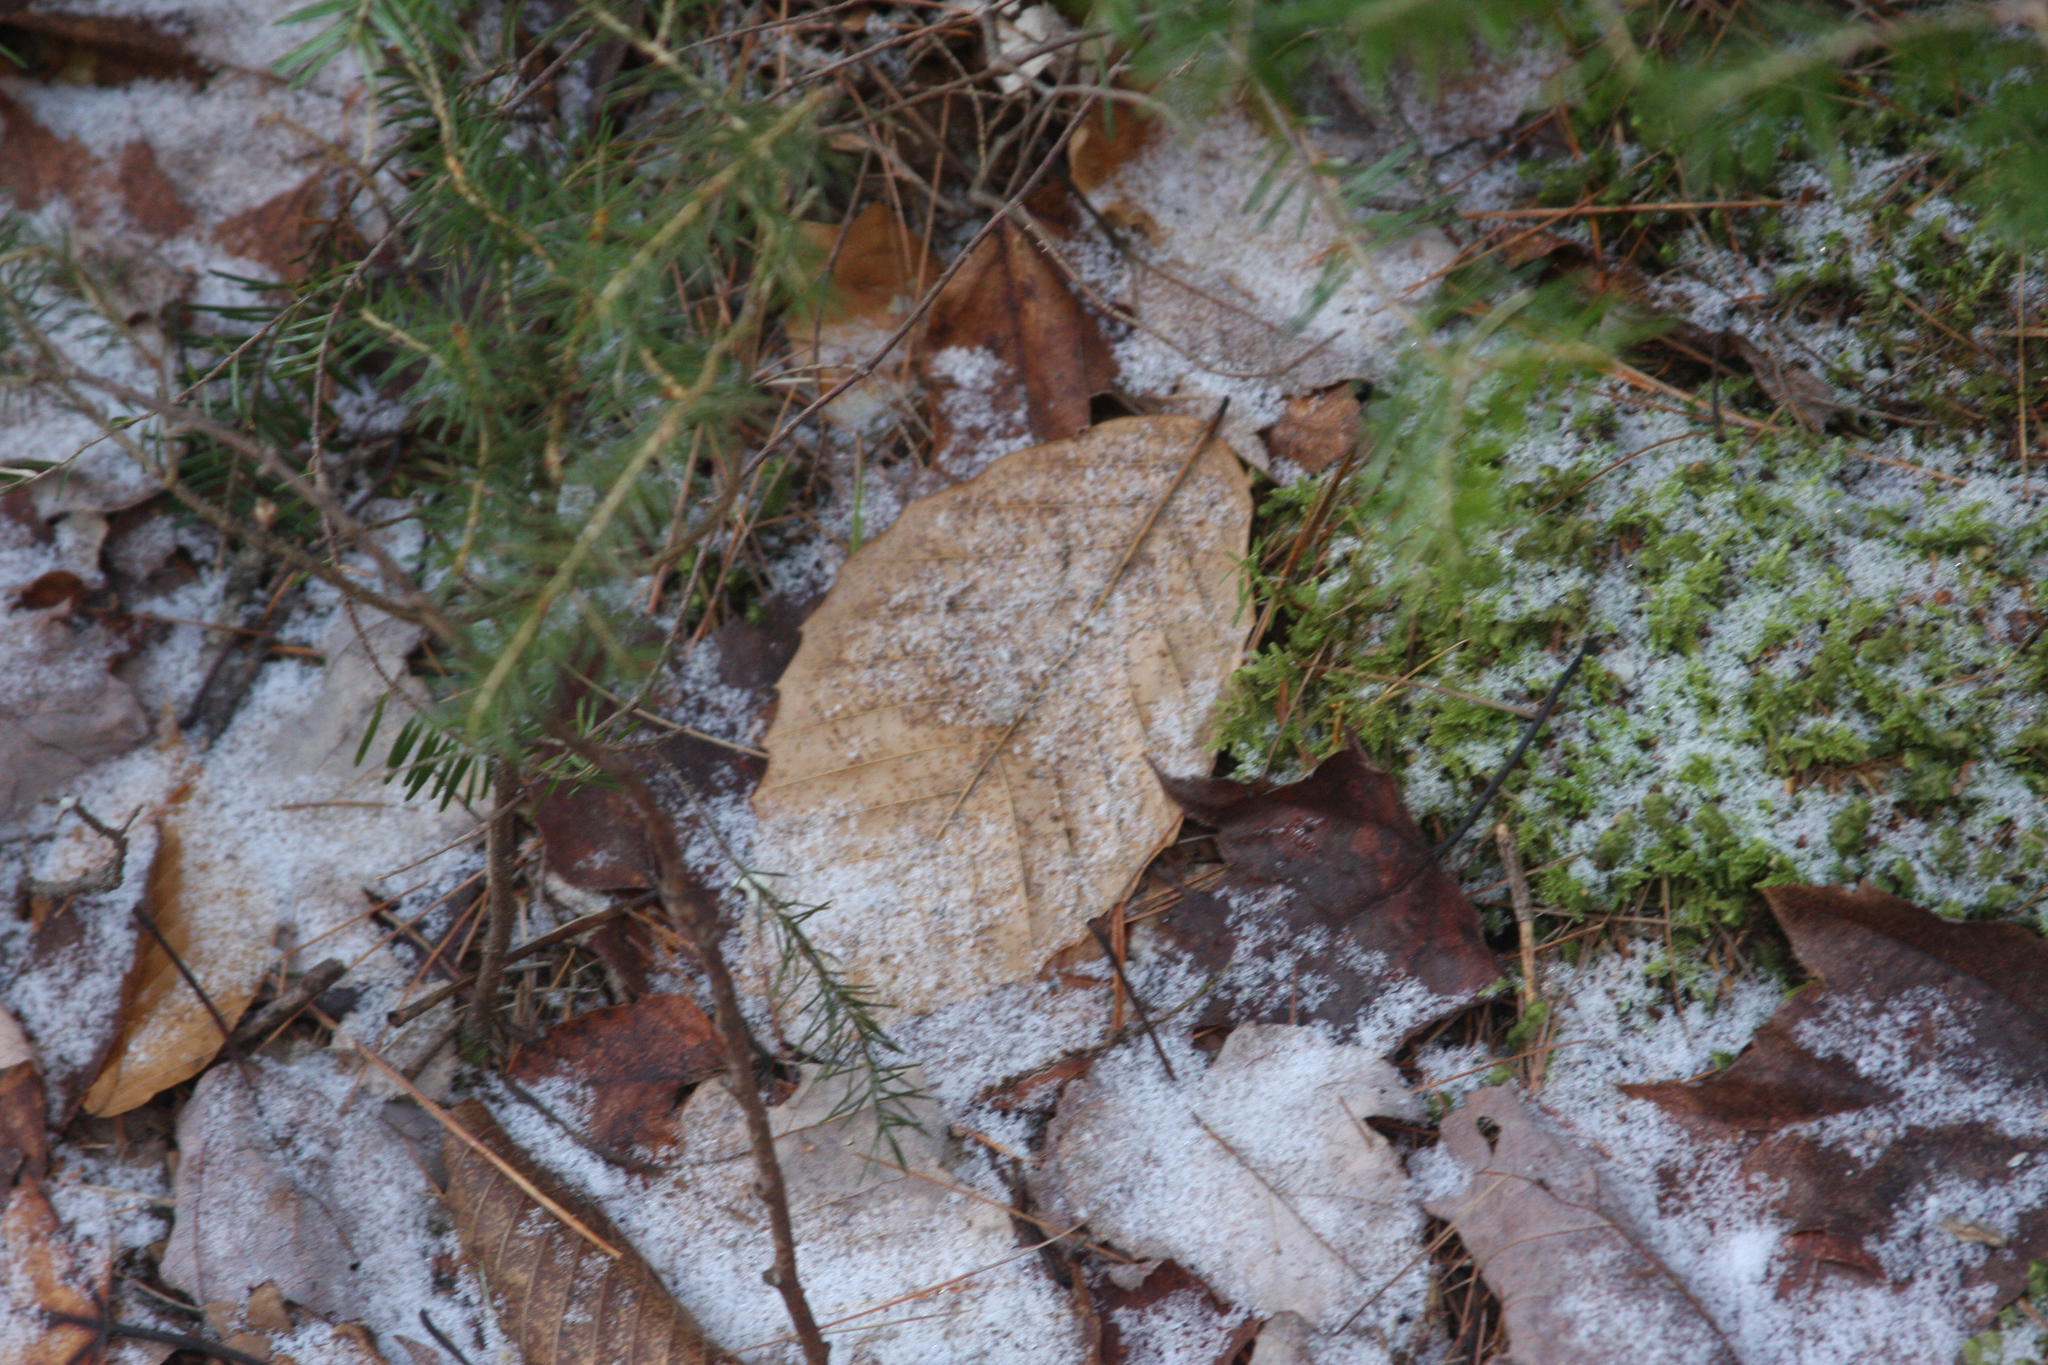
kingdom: Plantae
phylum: Tracheophyta
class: Magnoliopsida
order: Fagales
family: Fagaceae
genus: Fagus
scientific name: Fagus grandifolia
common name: American beech
